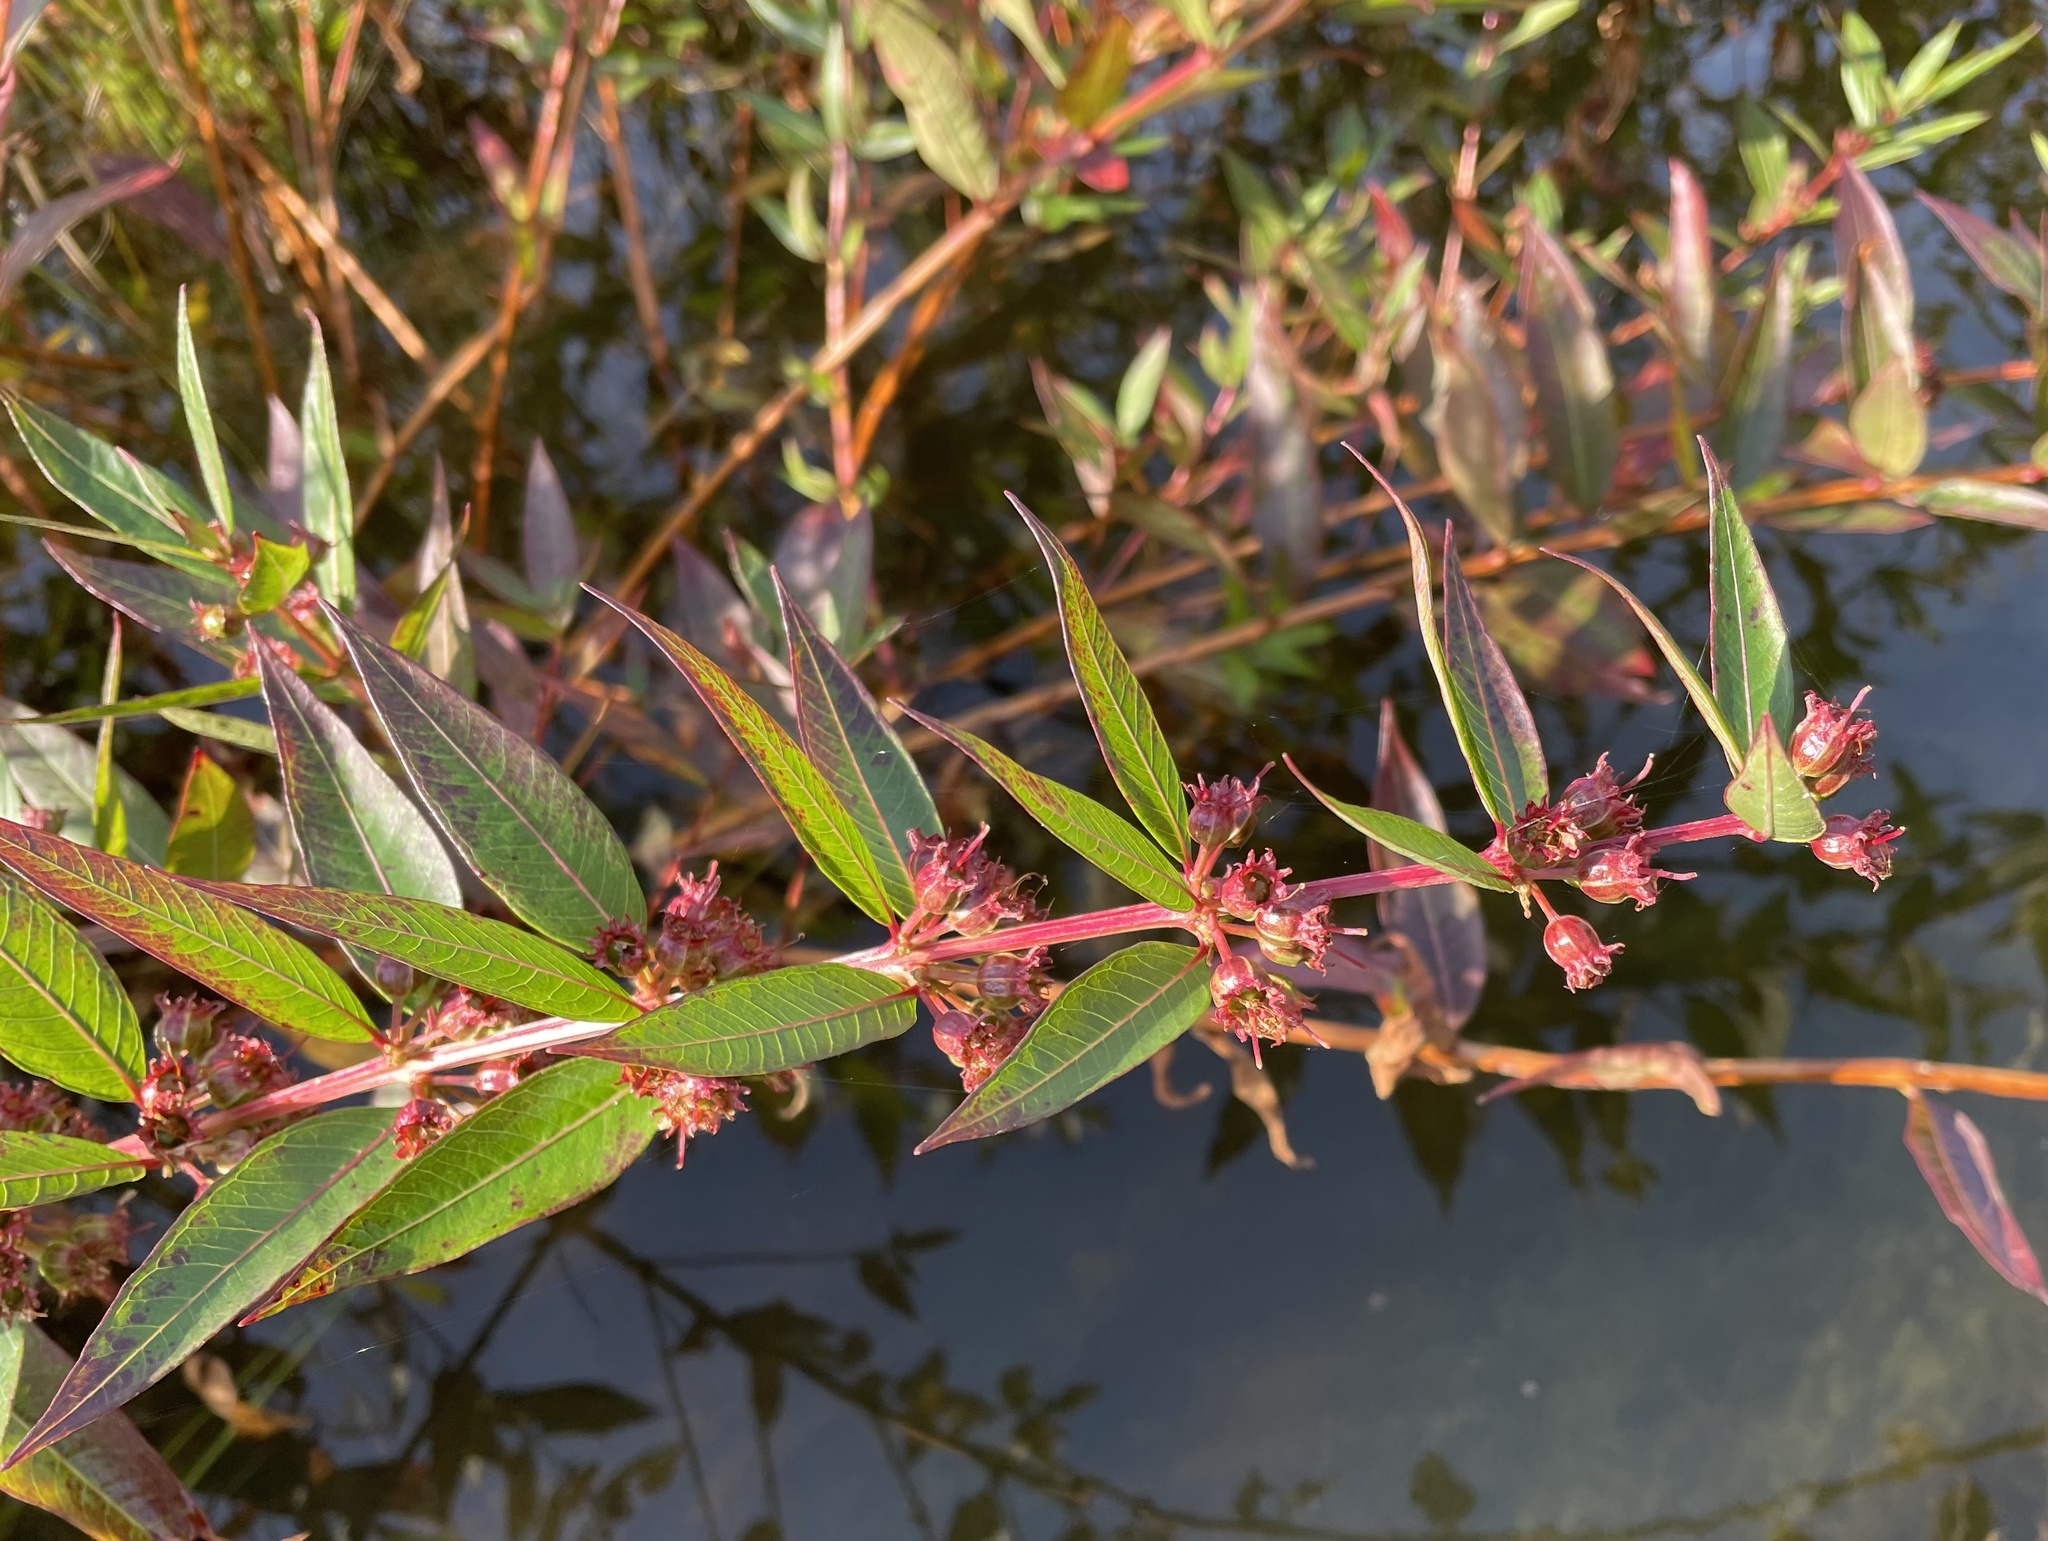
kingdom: Plantae
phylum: Tracheophyta
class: Magnoliopsida
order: Myrtales
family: Lythraceae
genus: Decodon
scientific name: Decodon verticillatus
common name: Hairy swamp loosestrife
